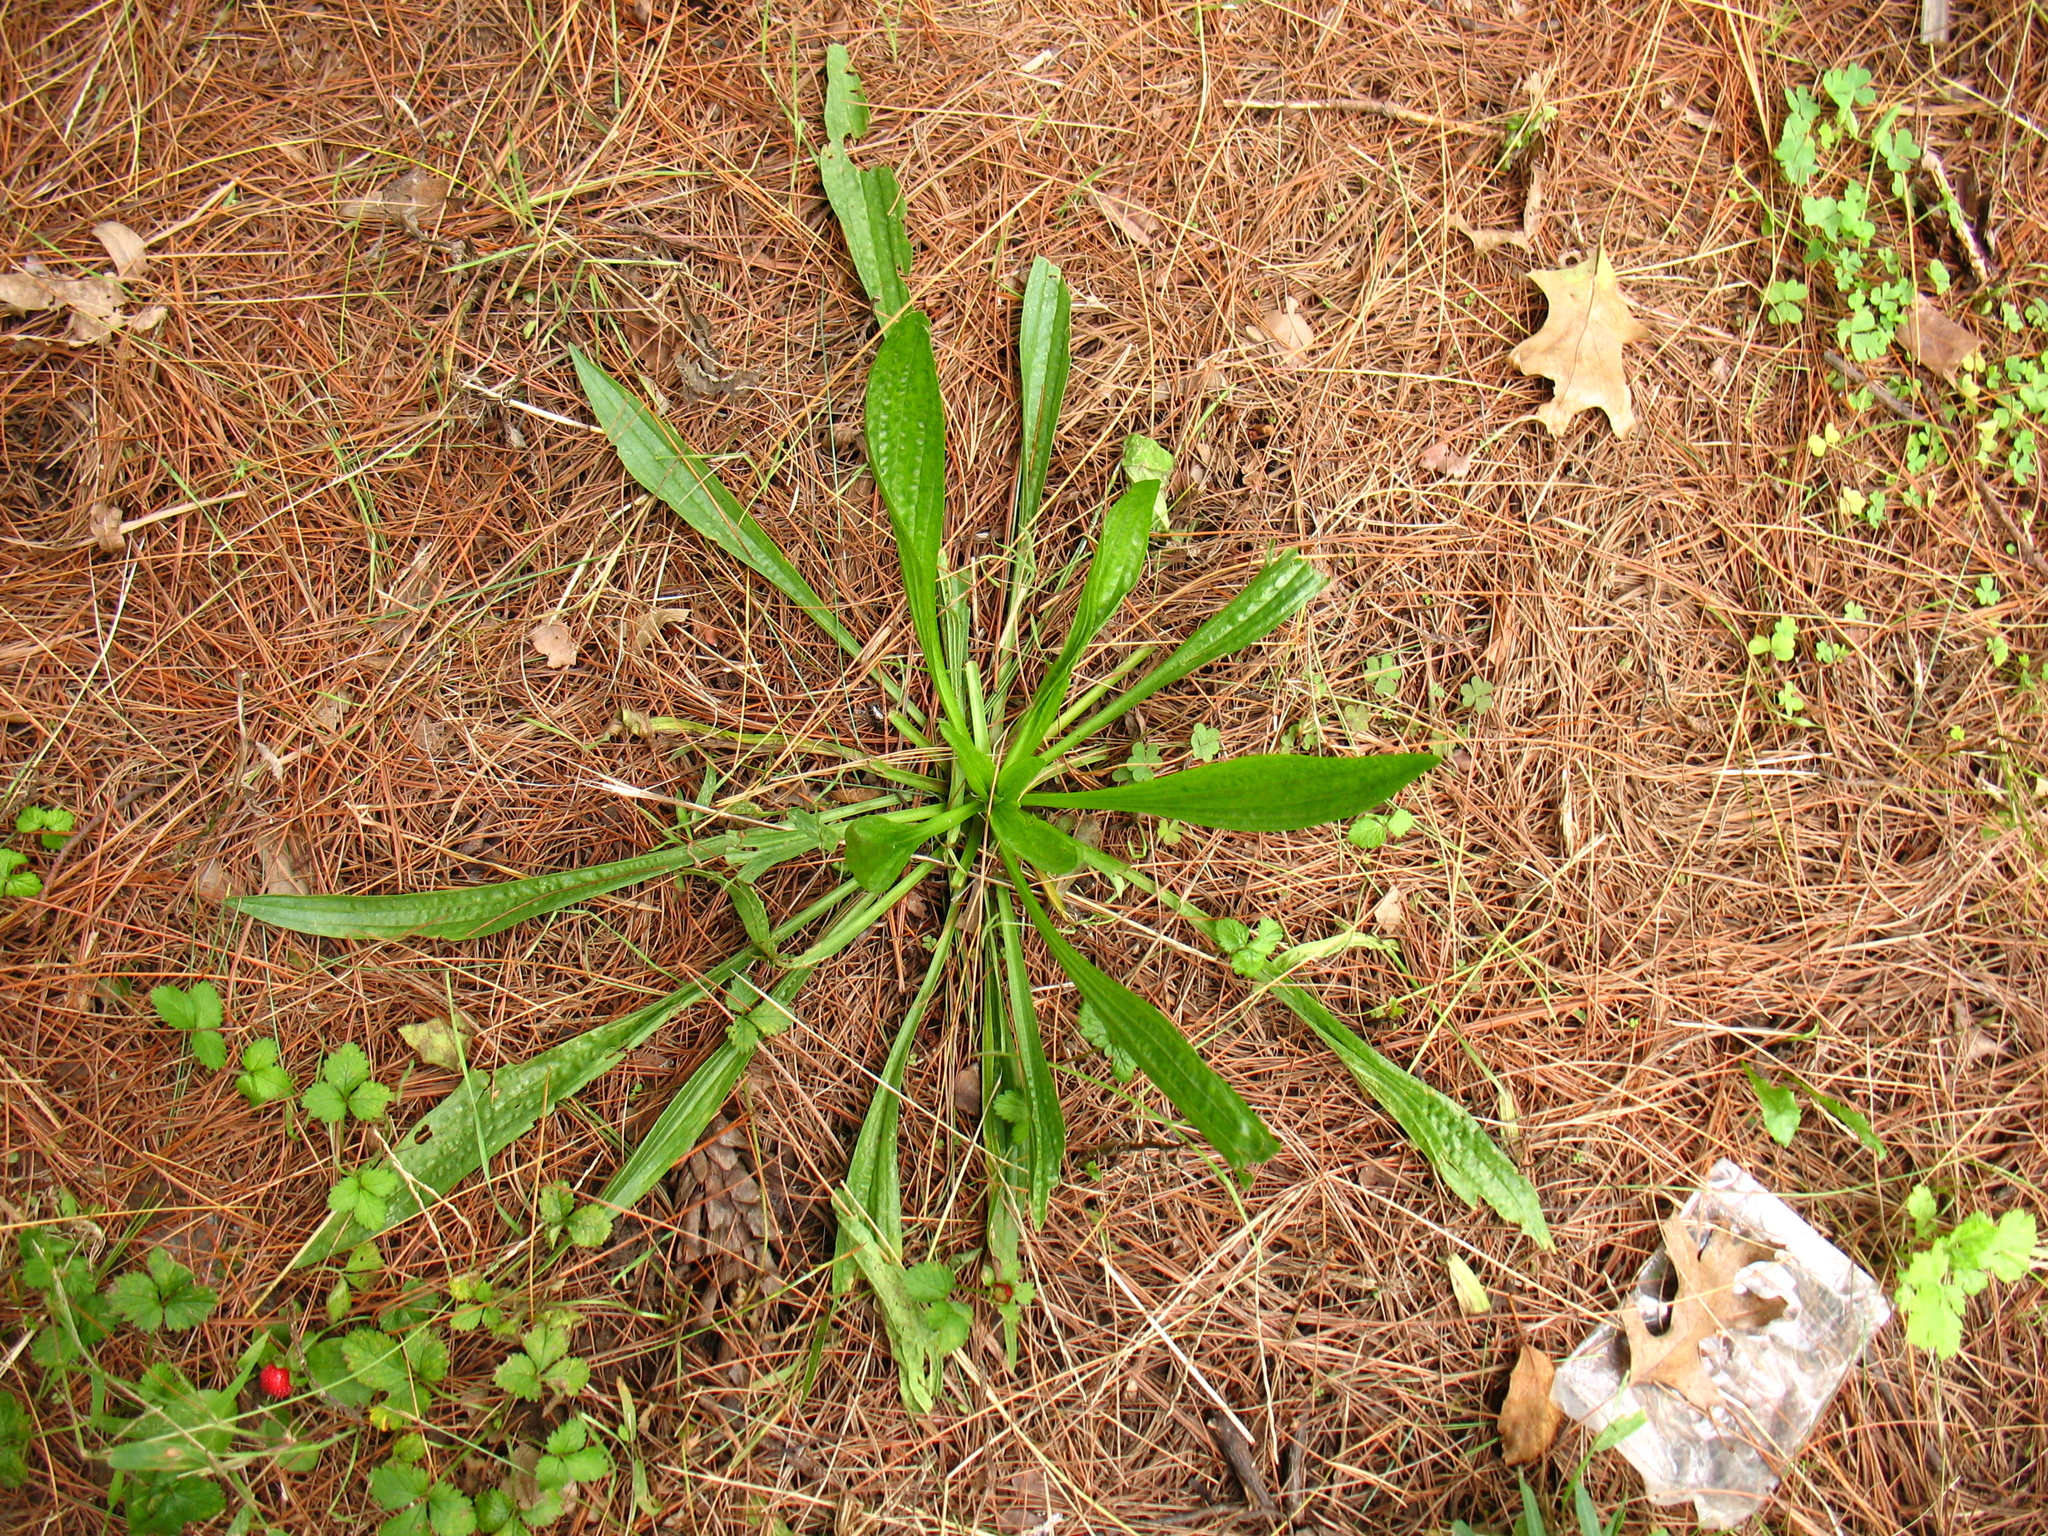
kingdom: Plantae
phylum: Tracheophyta
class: Magnoliopsida
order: Lamiales
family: Plantaginaceae
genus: Plantago
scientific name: Plantago lanceolata
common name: Ribwort plantain
